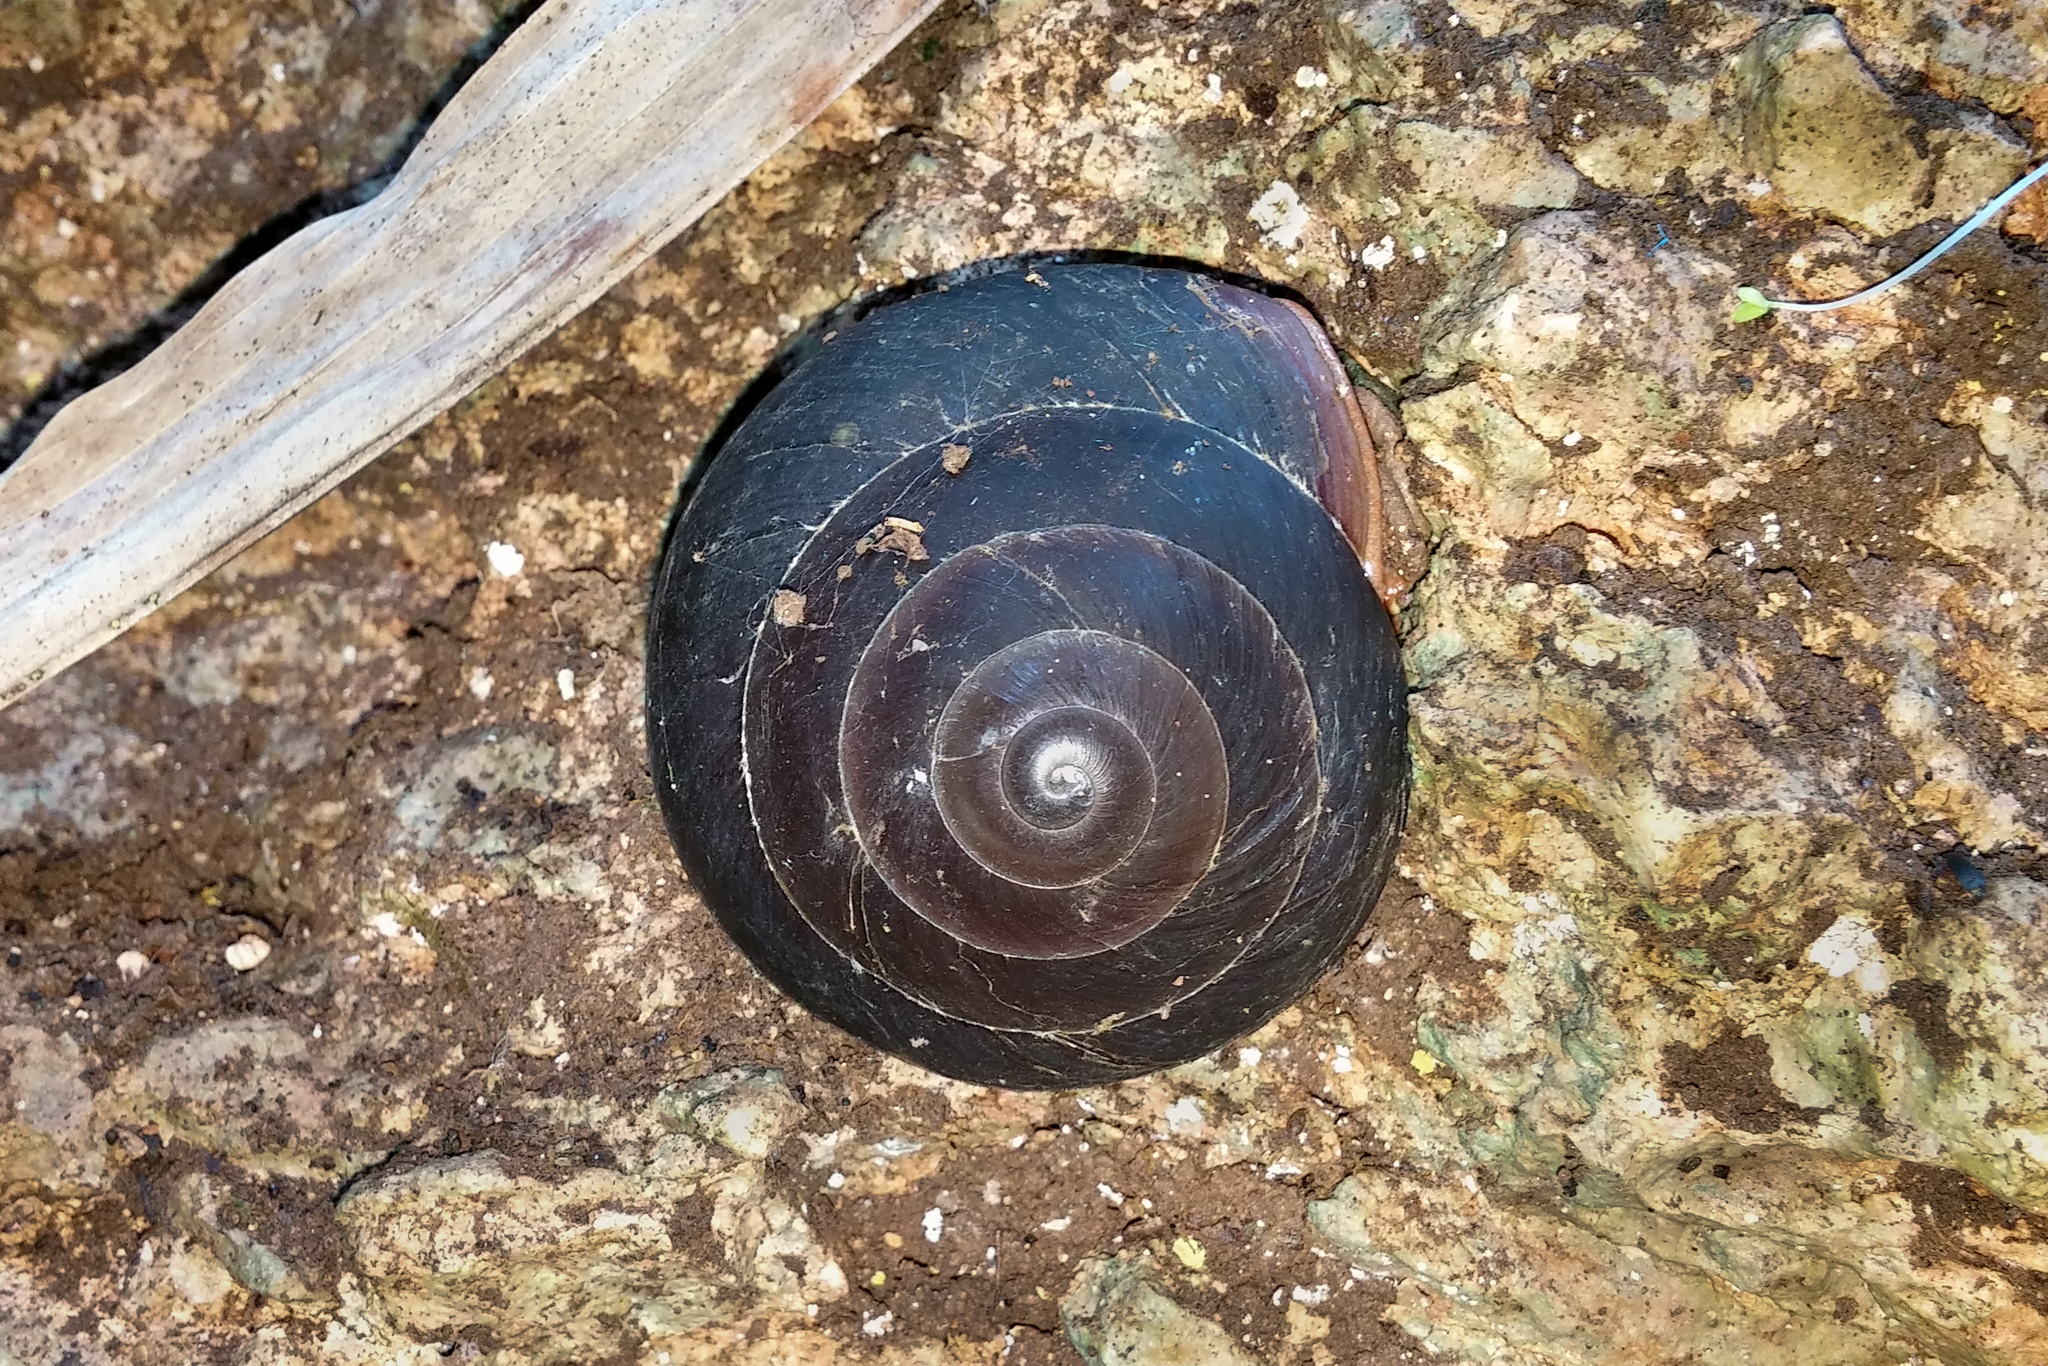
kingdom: Animalia
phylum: Mollusca
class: Gastropoda
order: Stylommatophora
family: Solaropsidae
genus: Caracolus
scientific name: Caracolus excellens
